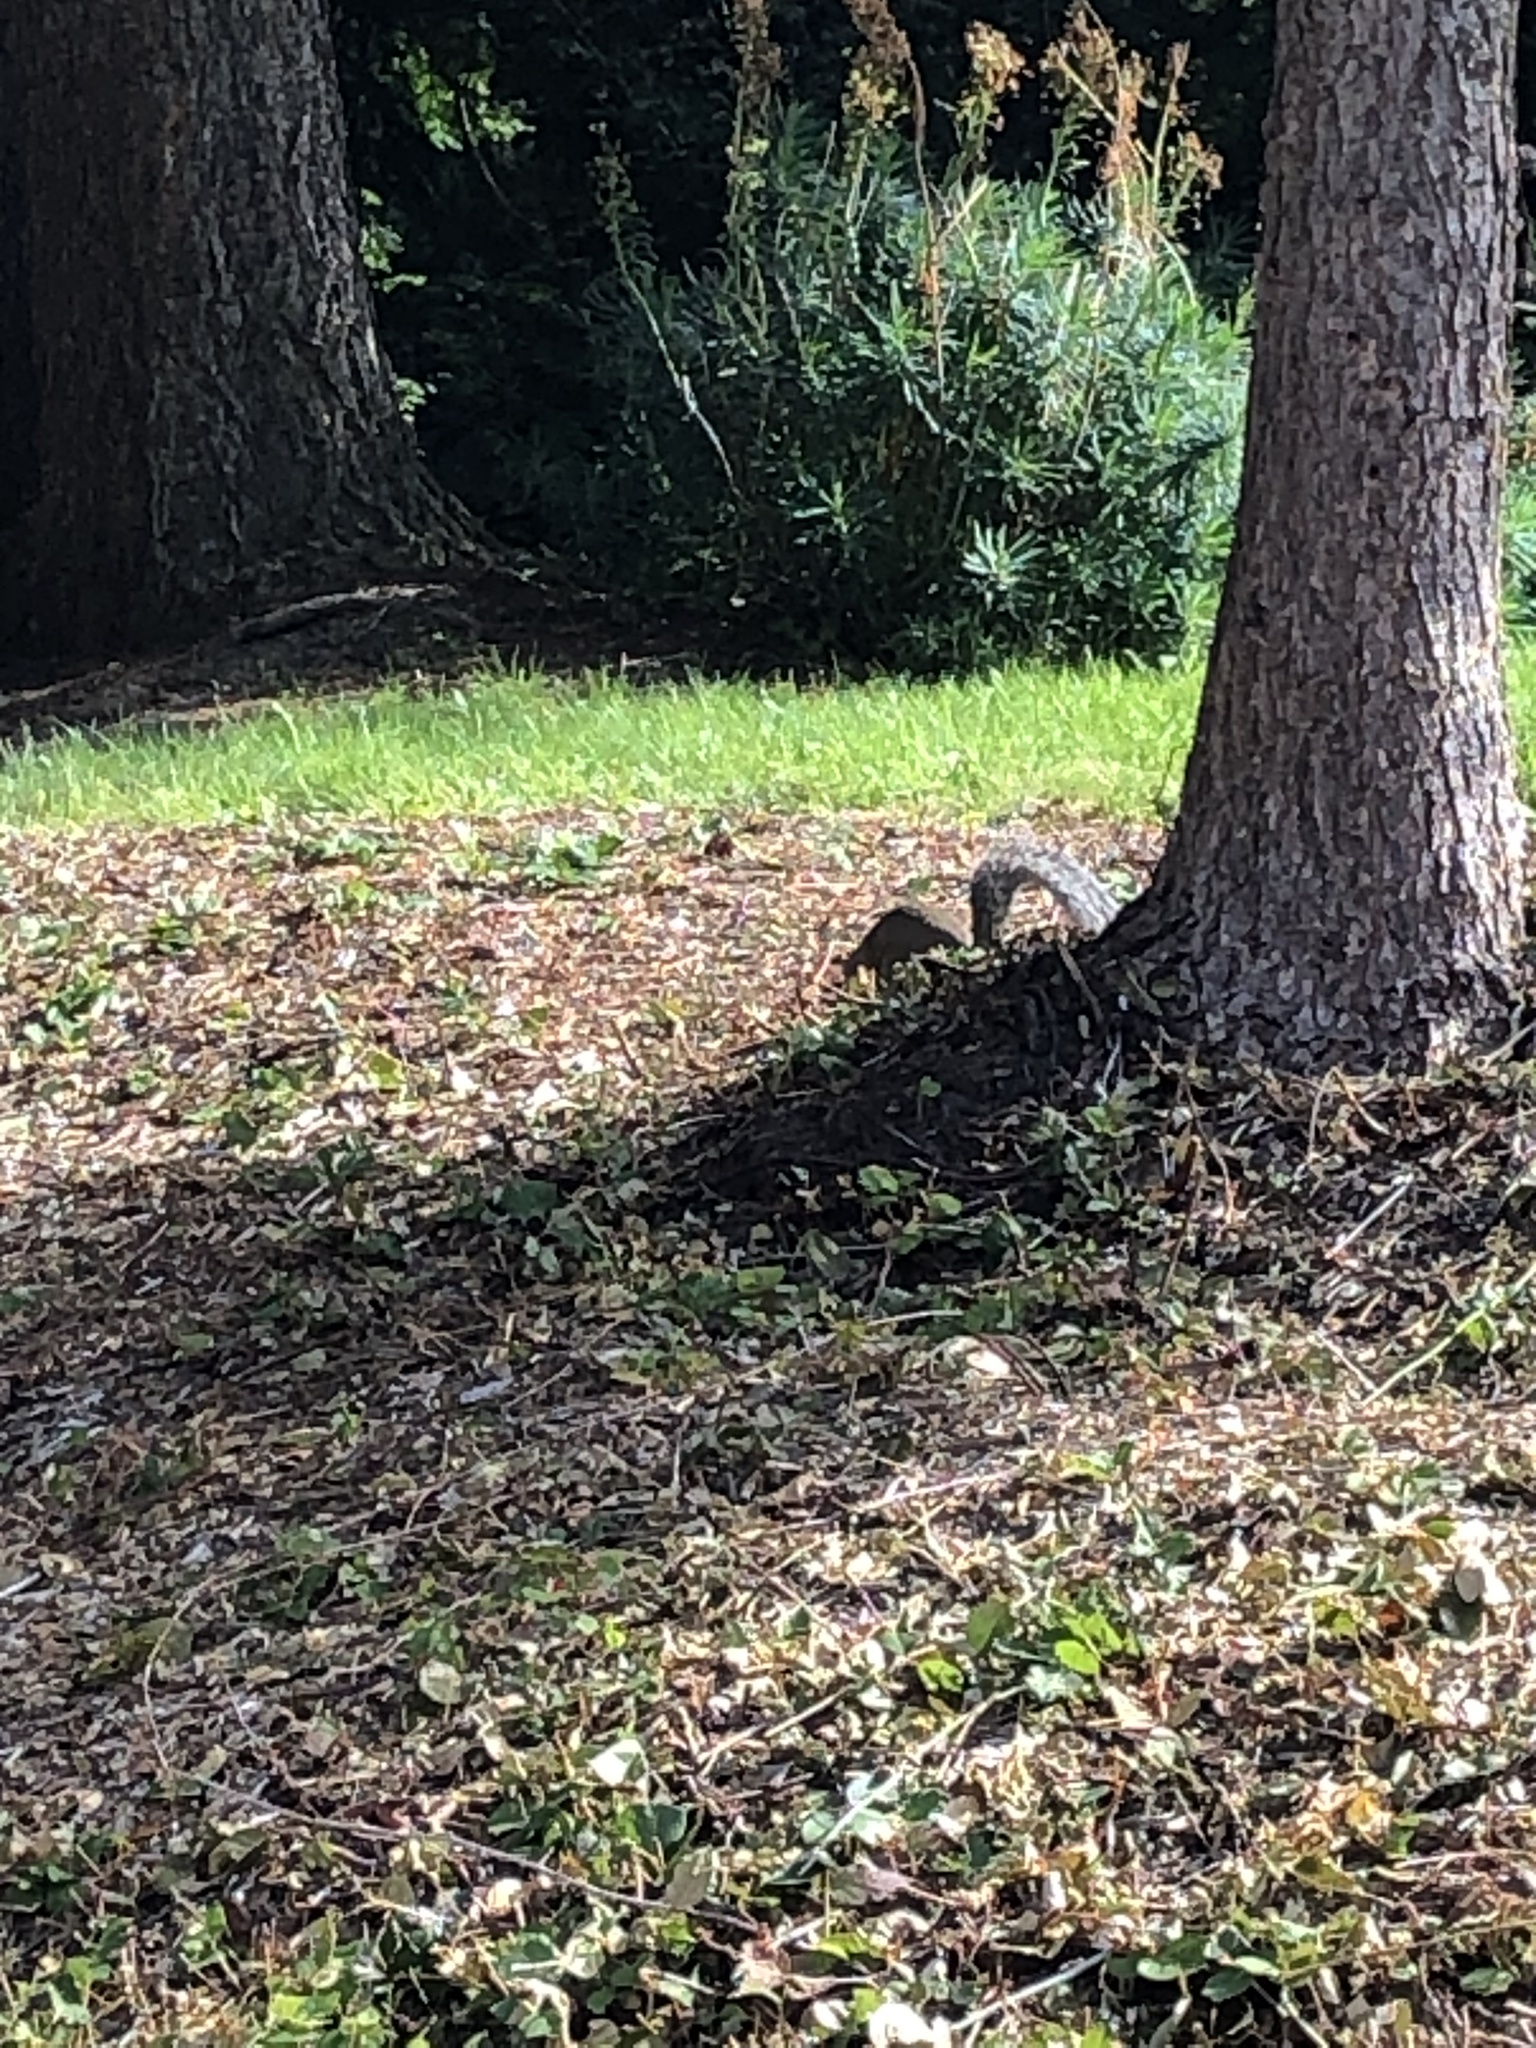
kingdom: Animalia
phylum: Chordata
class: Mammalia
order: Rodentia
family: Sciuridae
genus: Sciurus
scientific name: Sciurus carolinensis
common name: Eastern gray squirrel
